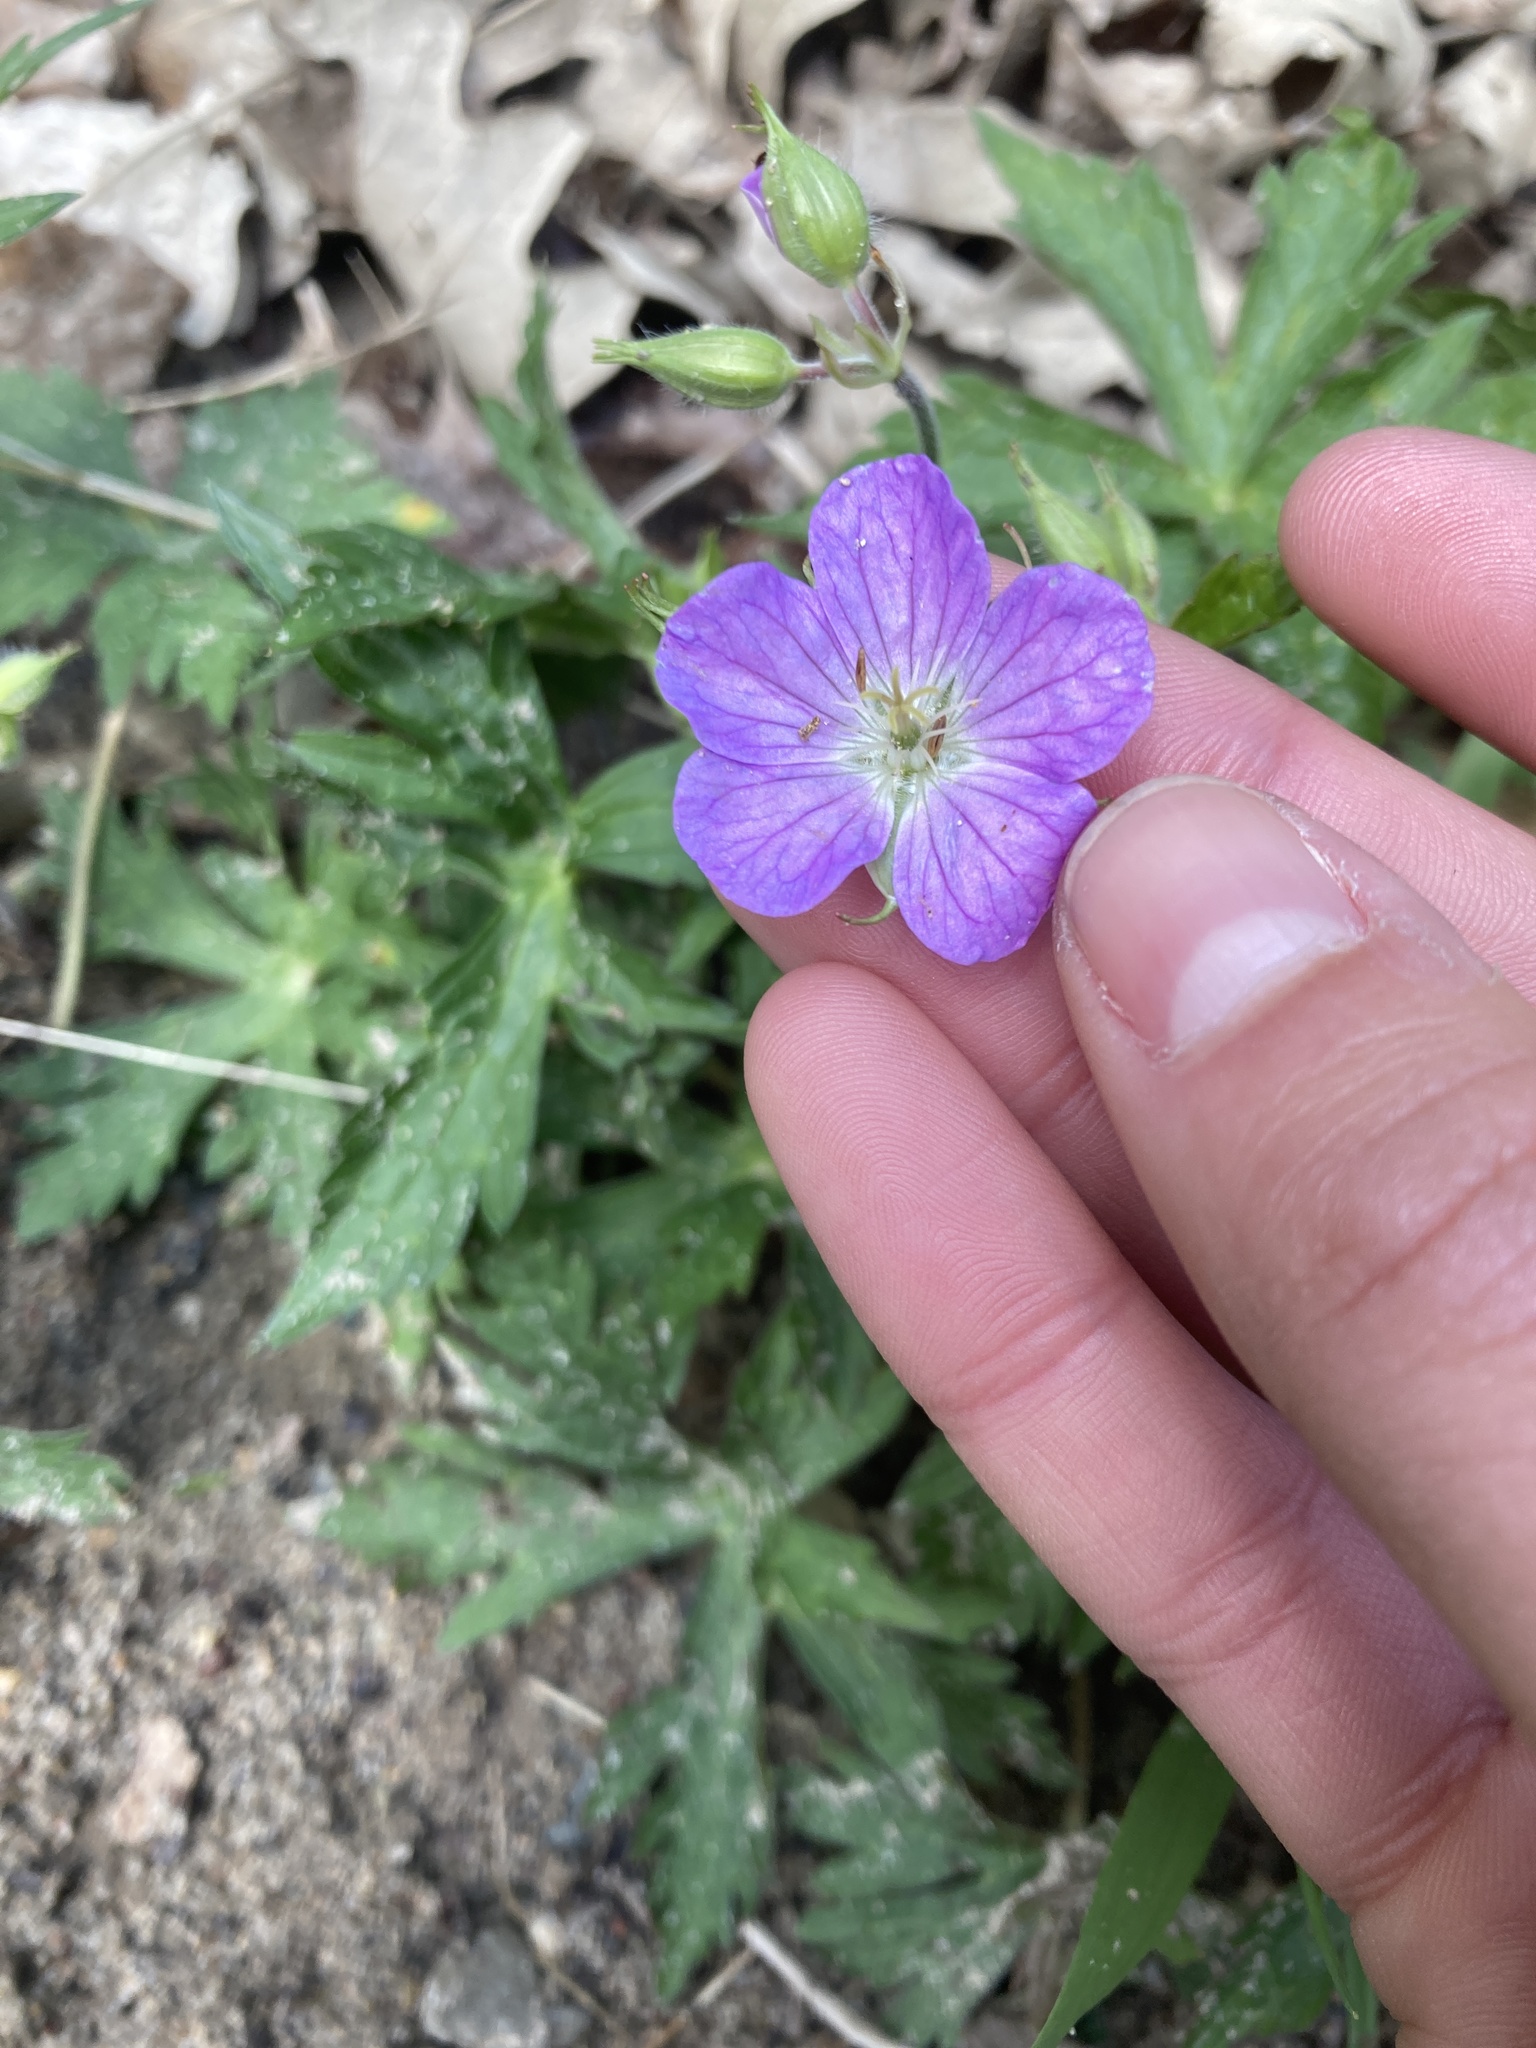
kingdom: Plantae
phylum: Tracheophyta
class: Magnoliopsida
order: Geraniales
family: Geraniaceae
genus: Geranium
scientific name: Geranium maculatum
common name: Spotted geranium
